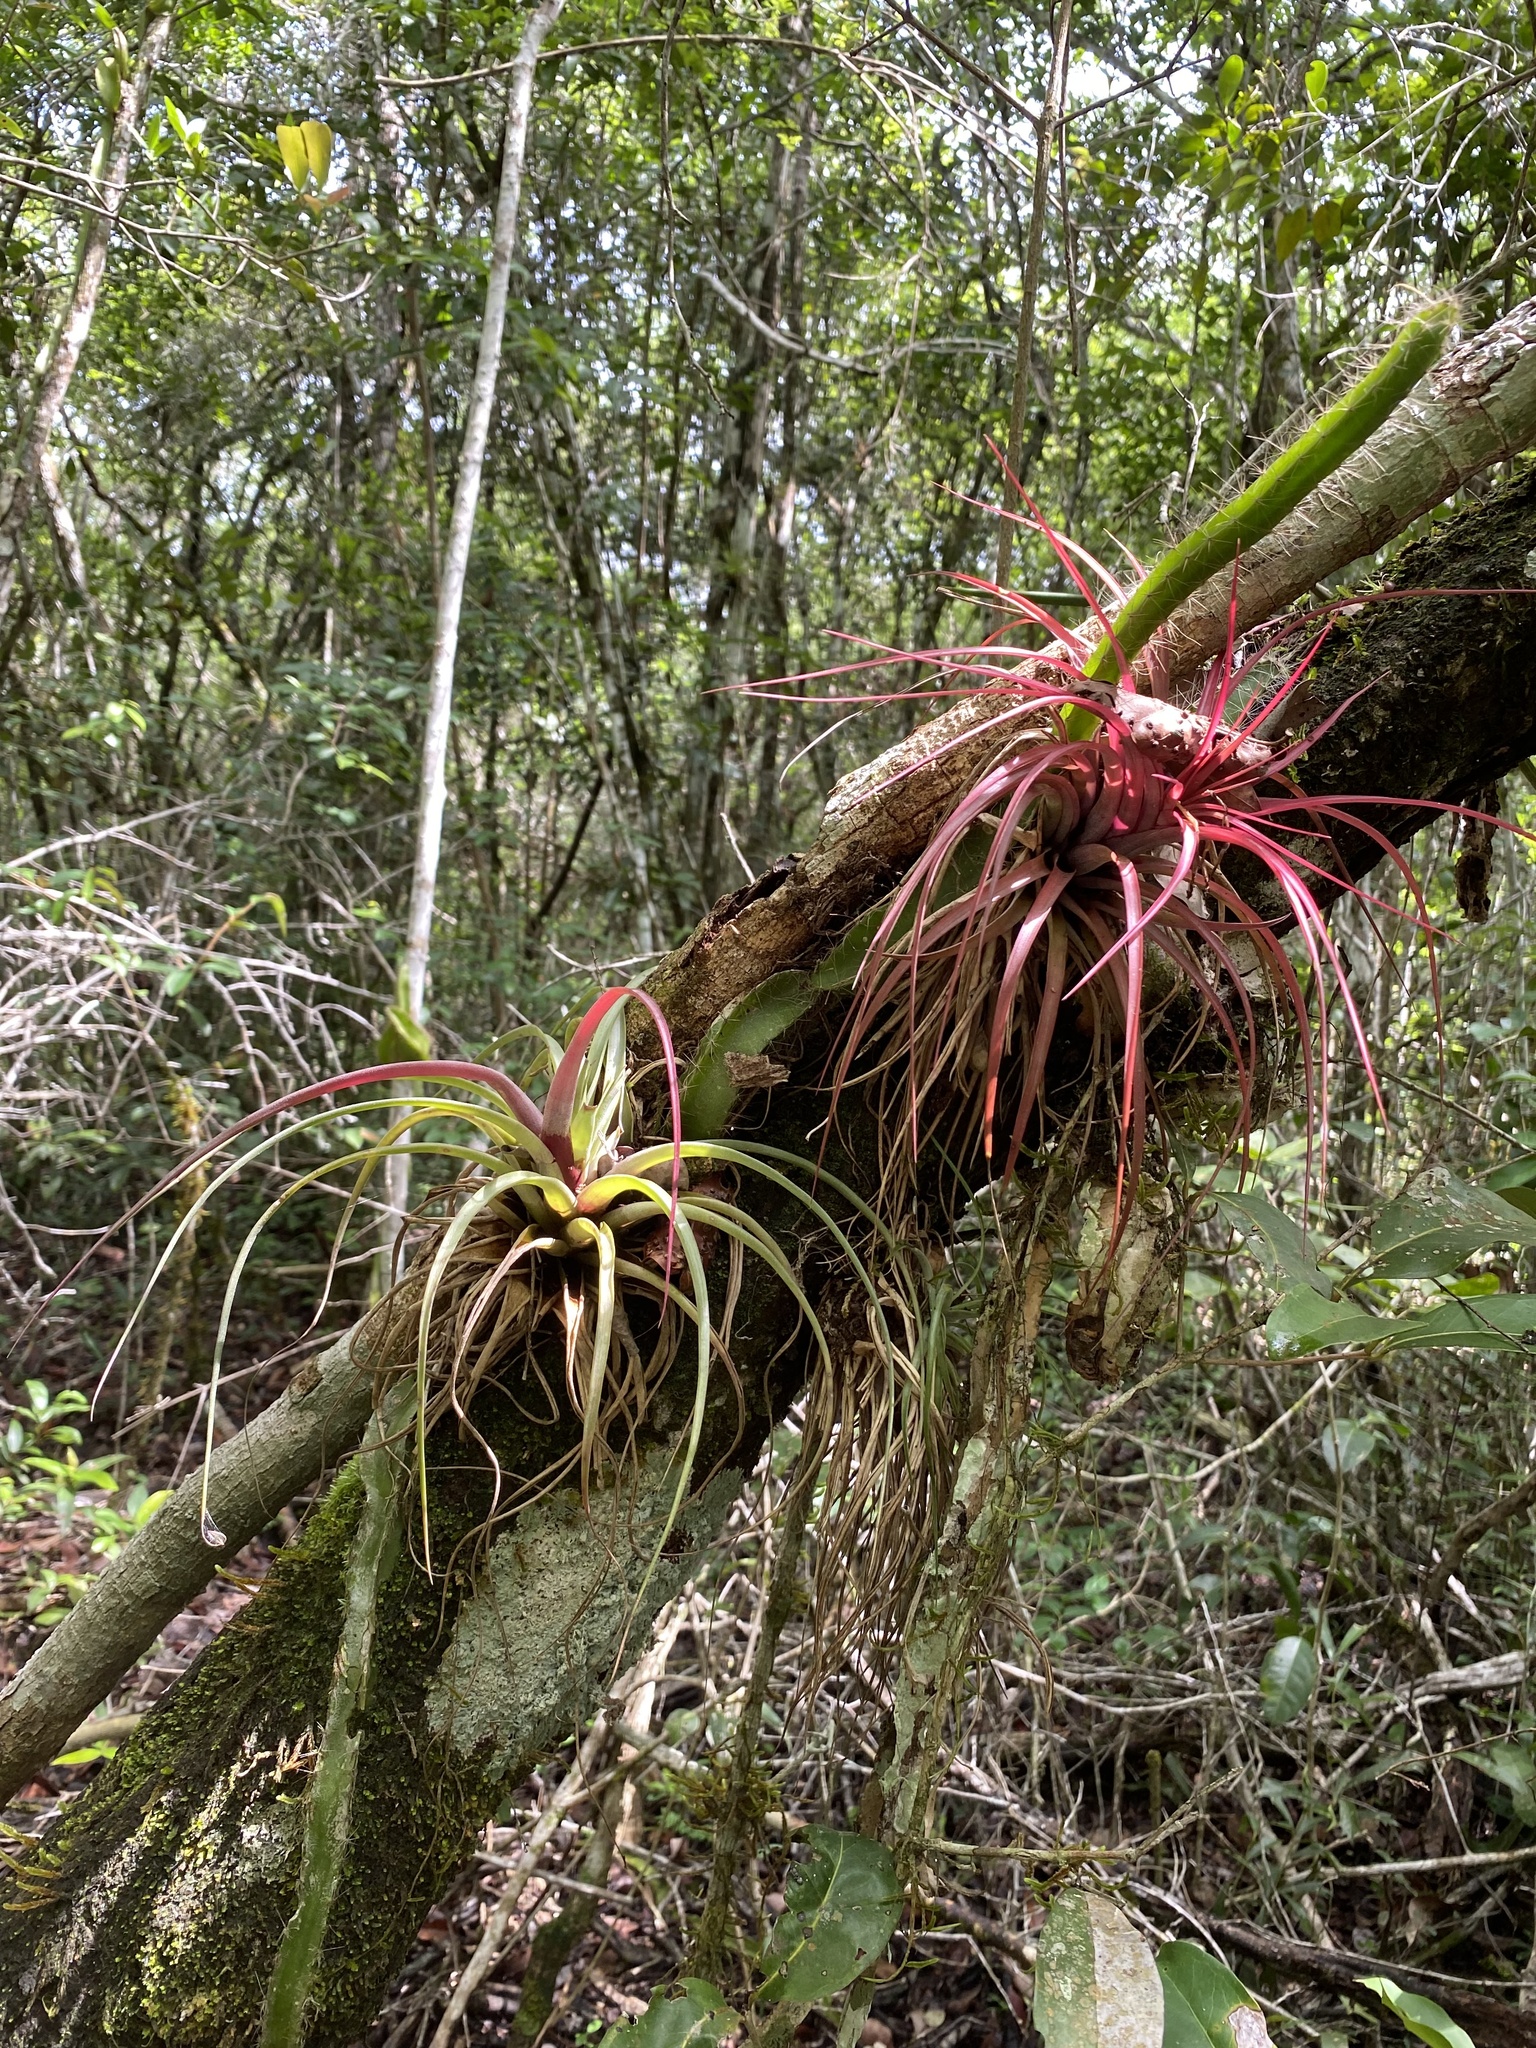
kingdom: Plantae
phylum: Tracheophyta
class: Liliopsida
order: Poales
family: Bromeliaceae
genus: Tillandsia
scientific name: Tillandsia brachycaulos
